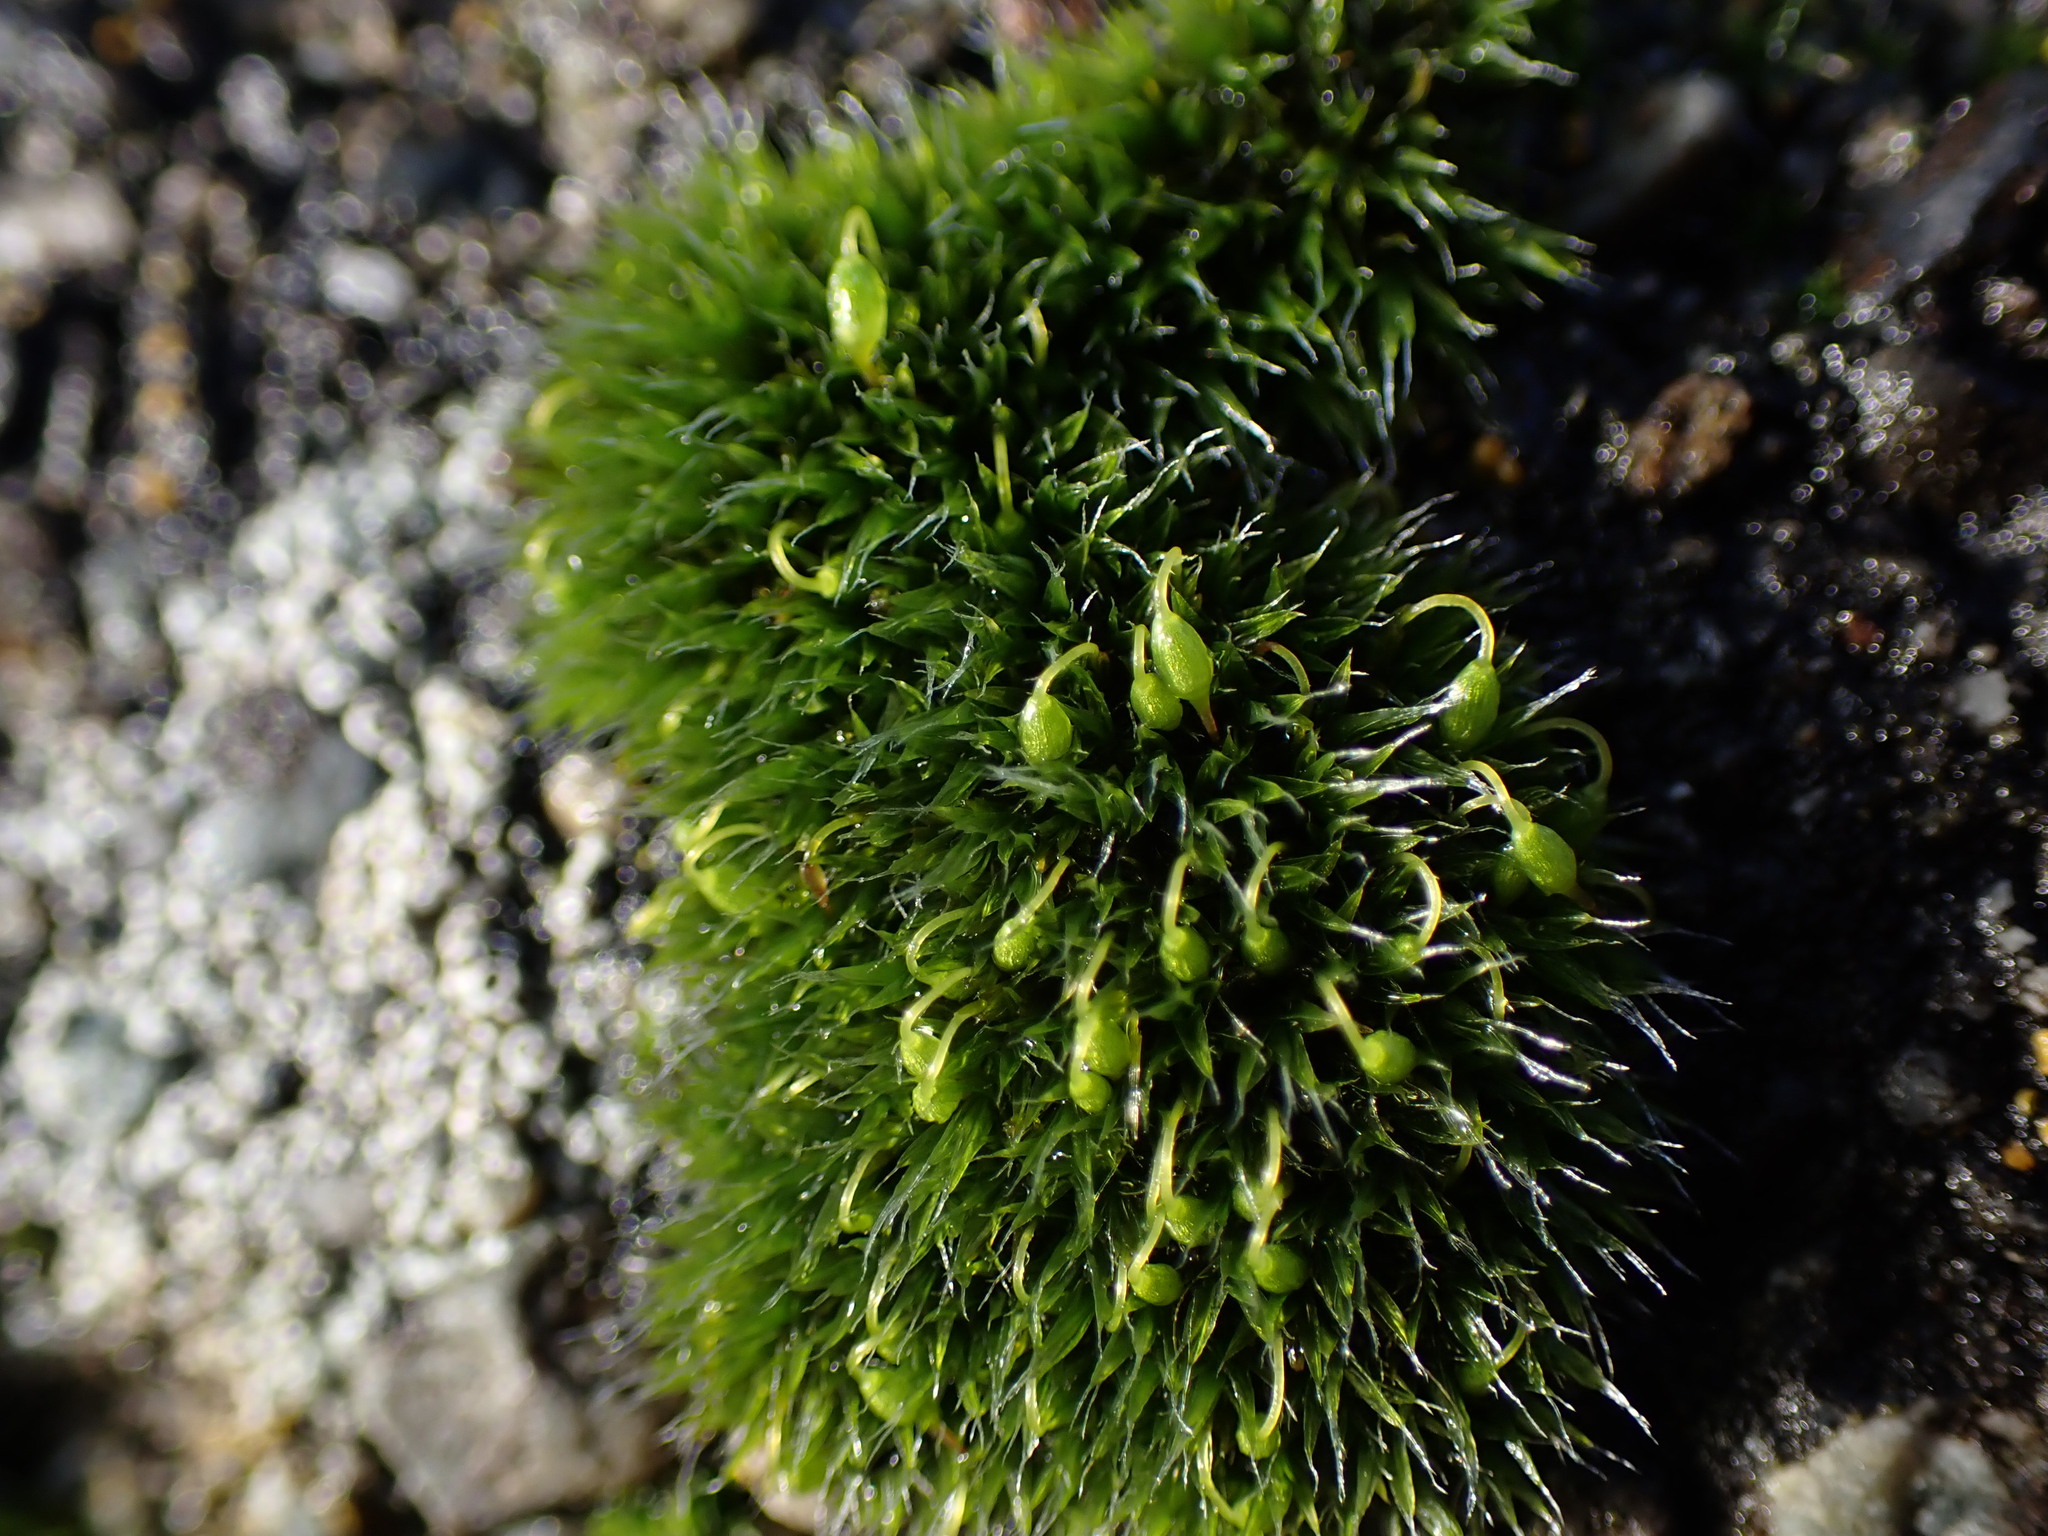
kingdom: Plantae
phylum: Bryophyta
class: Bryopsida
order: Grimmiales
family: Grimmiaceae
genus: Grimmia
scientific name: Grimmia pulvinata
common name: Grey-cushioned grimmia
